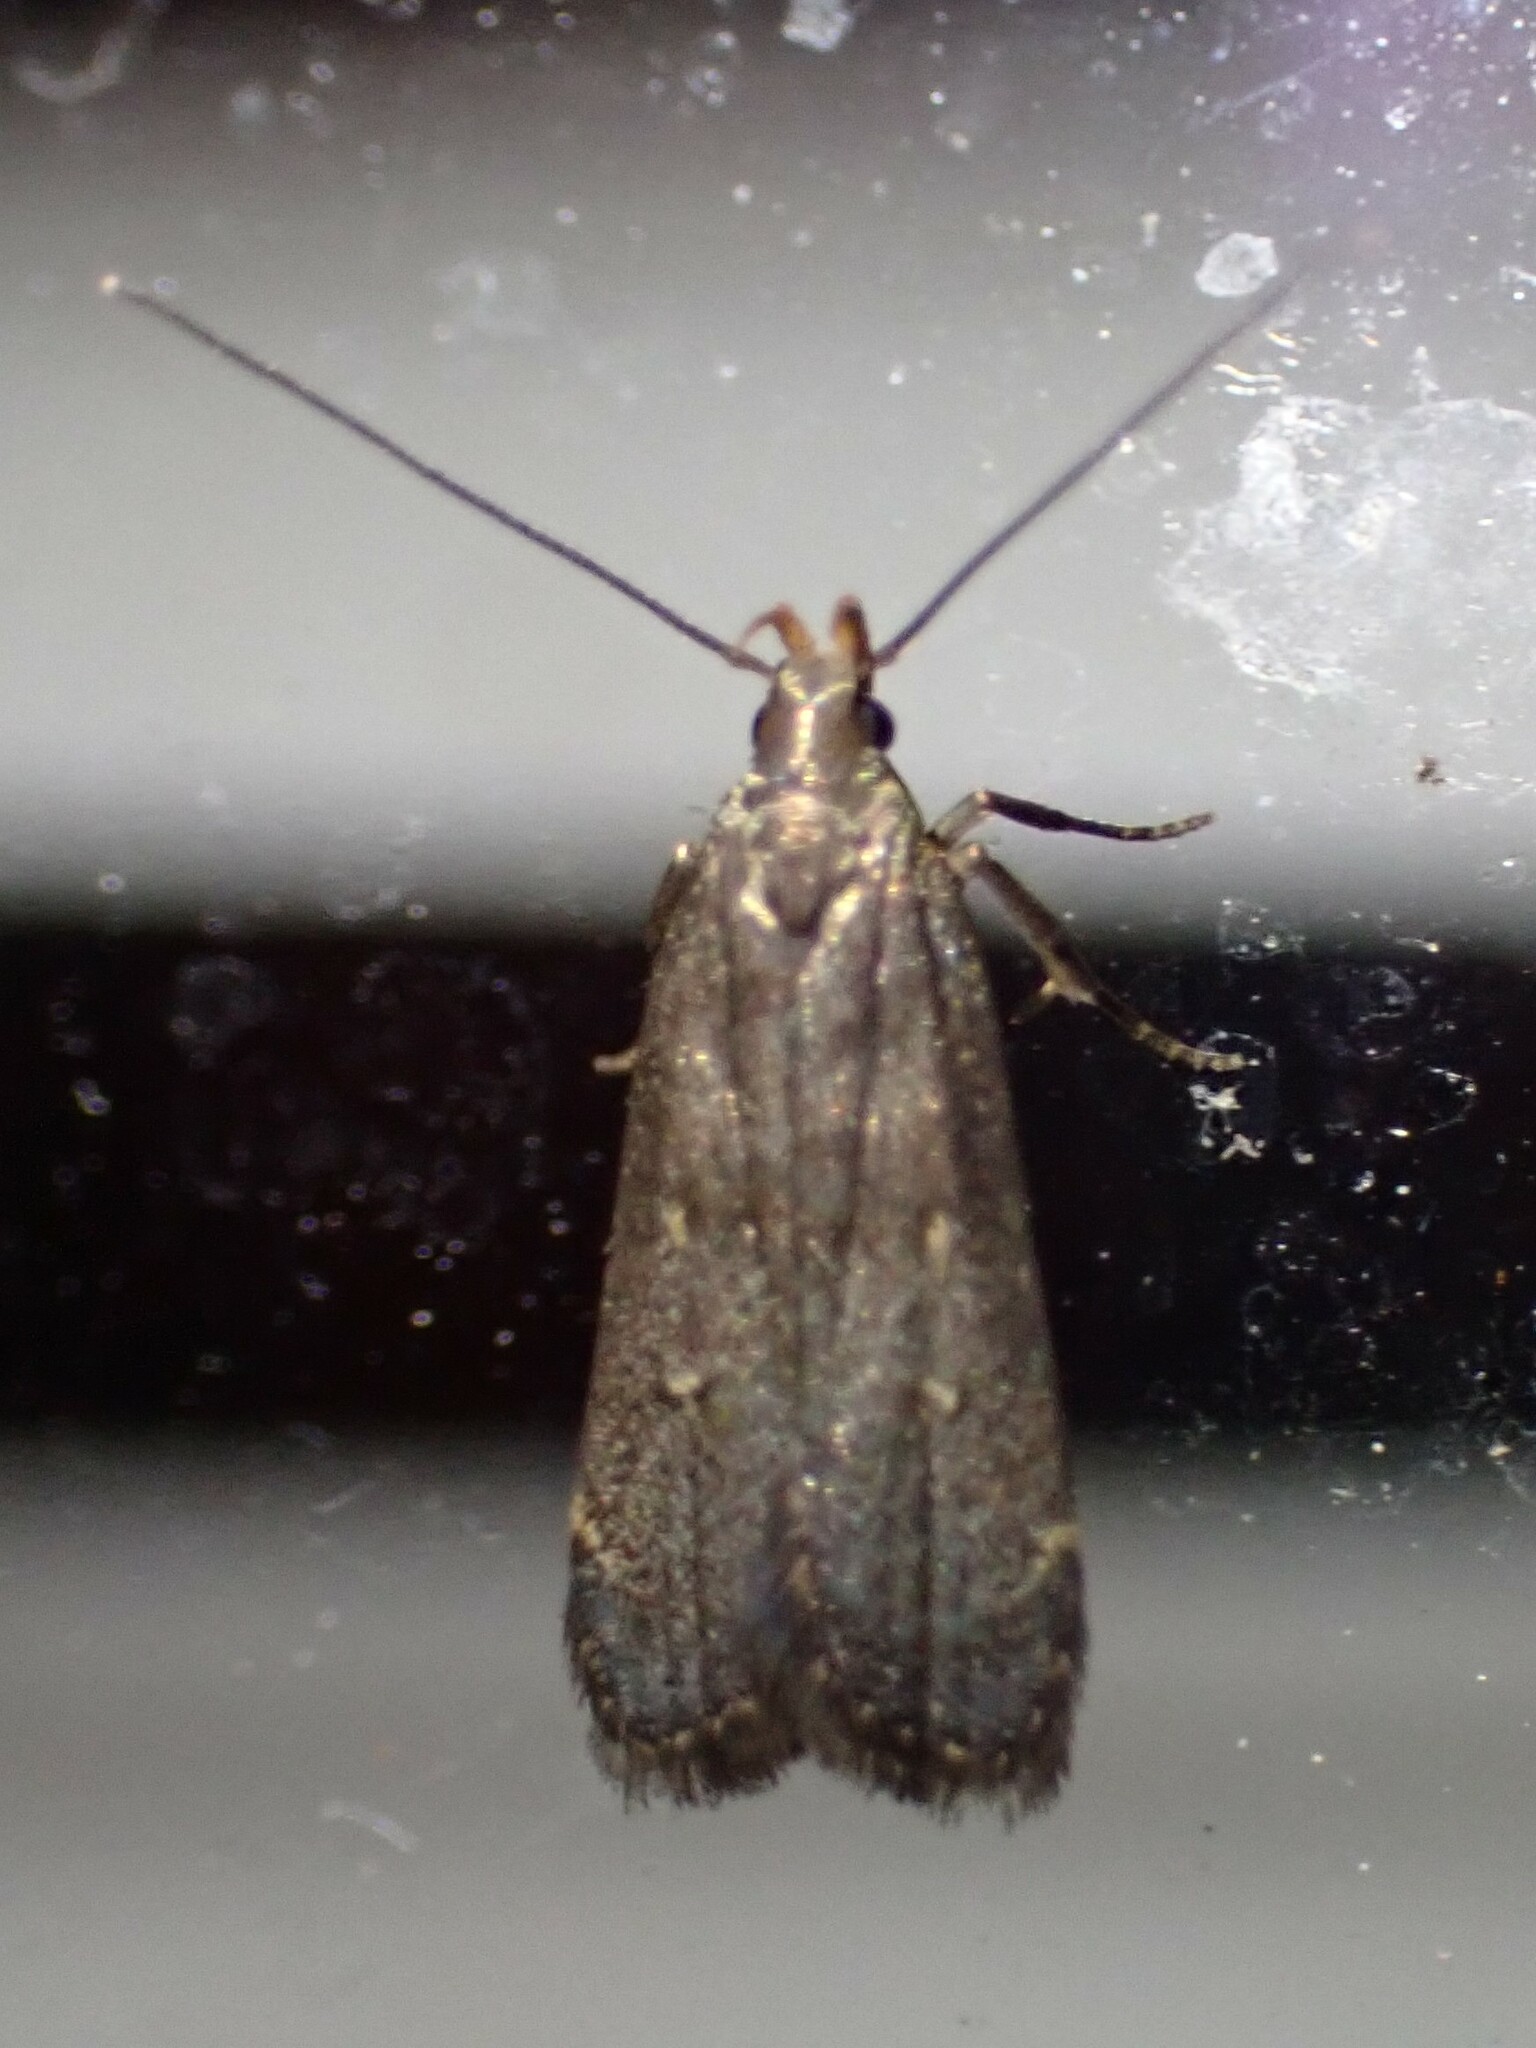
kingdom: Animalia
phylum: Arthropoda
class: Insecta
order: Lepidoptera
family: Gelechiidae
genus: Dichomeris
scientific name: Dichomeris juncidella
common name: Orange-dotted dichomeris moth
